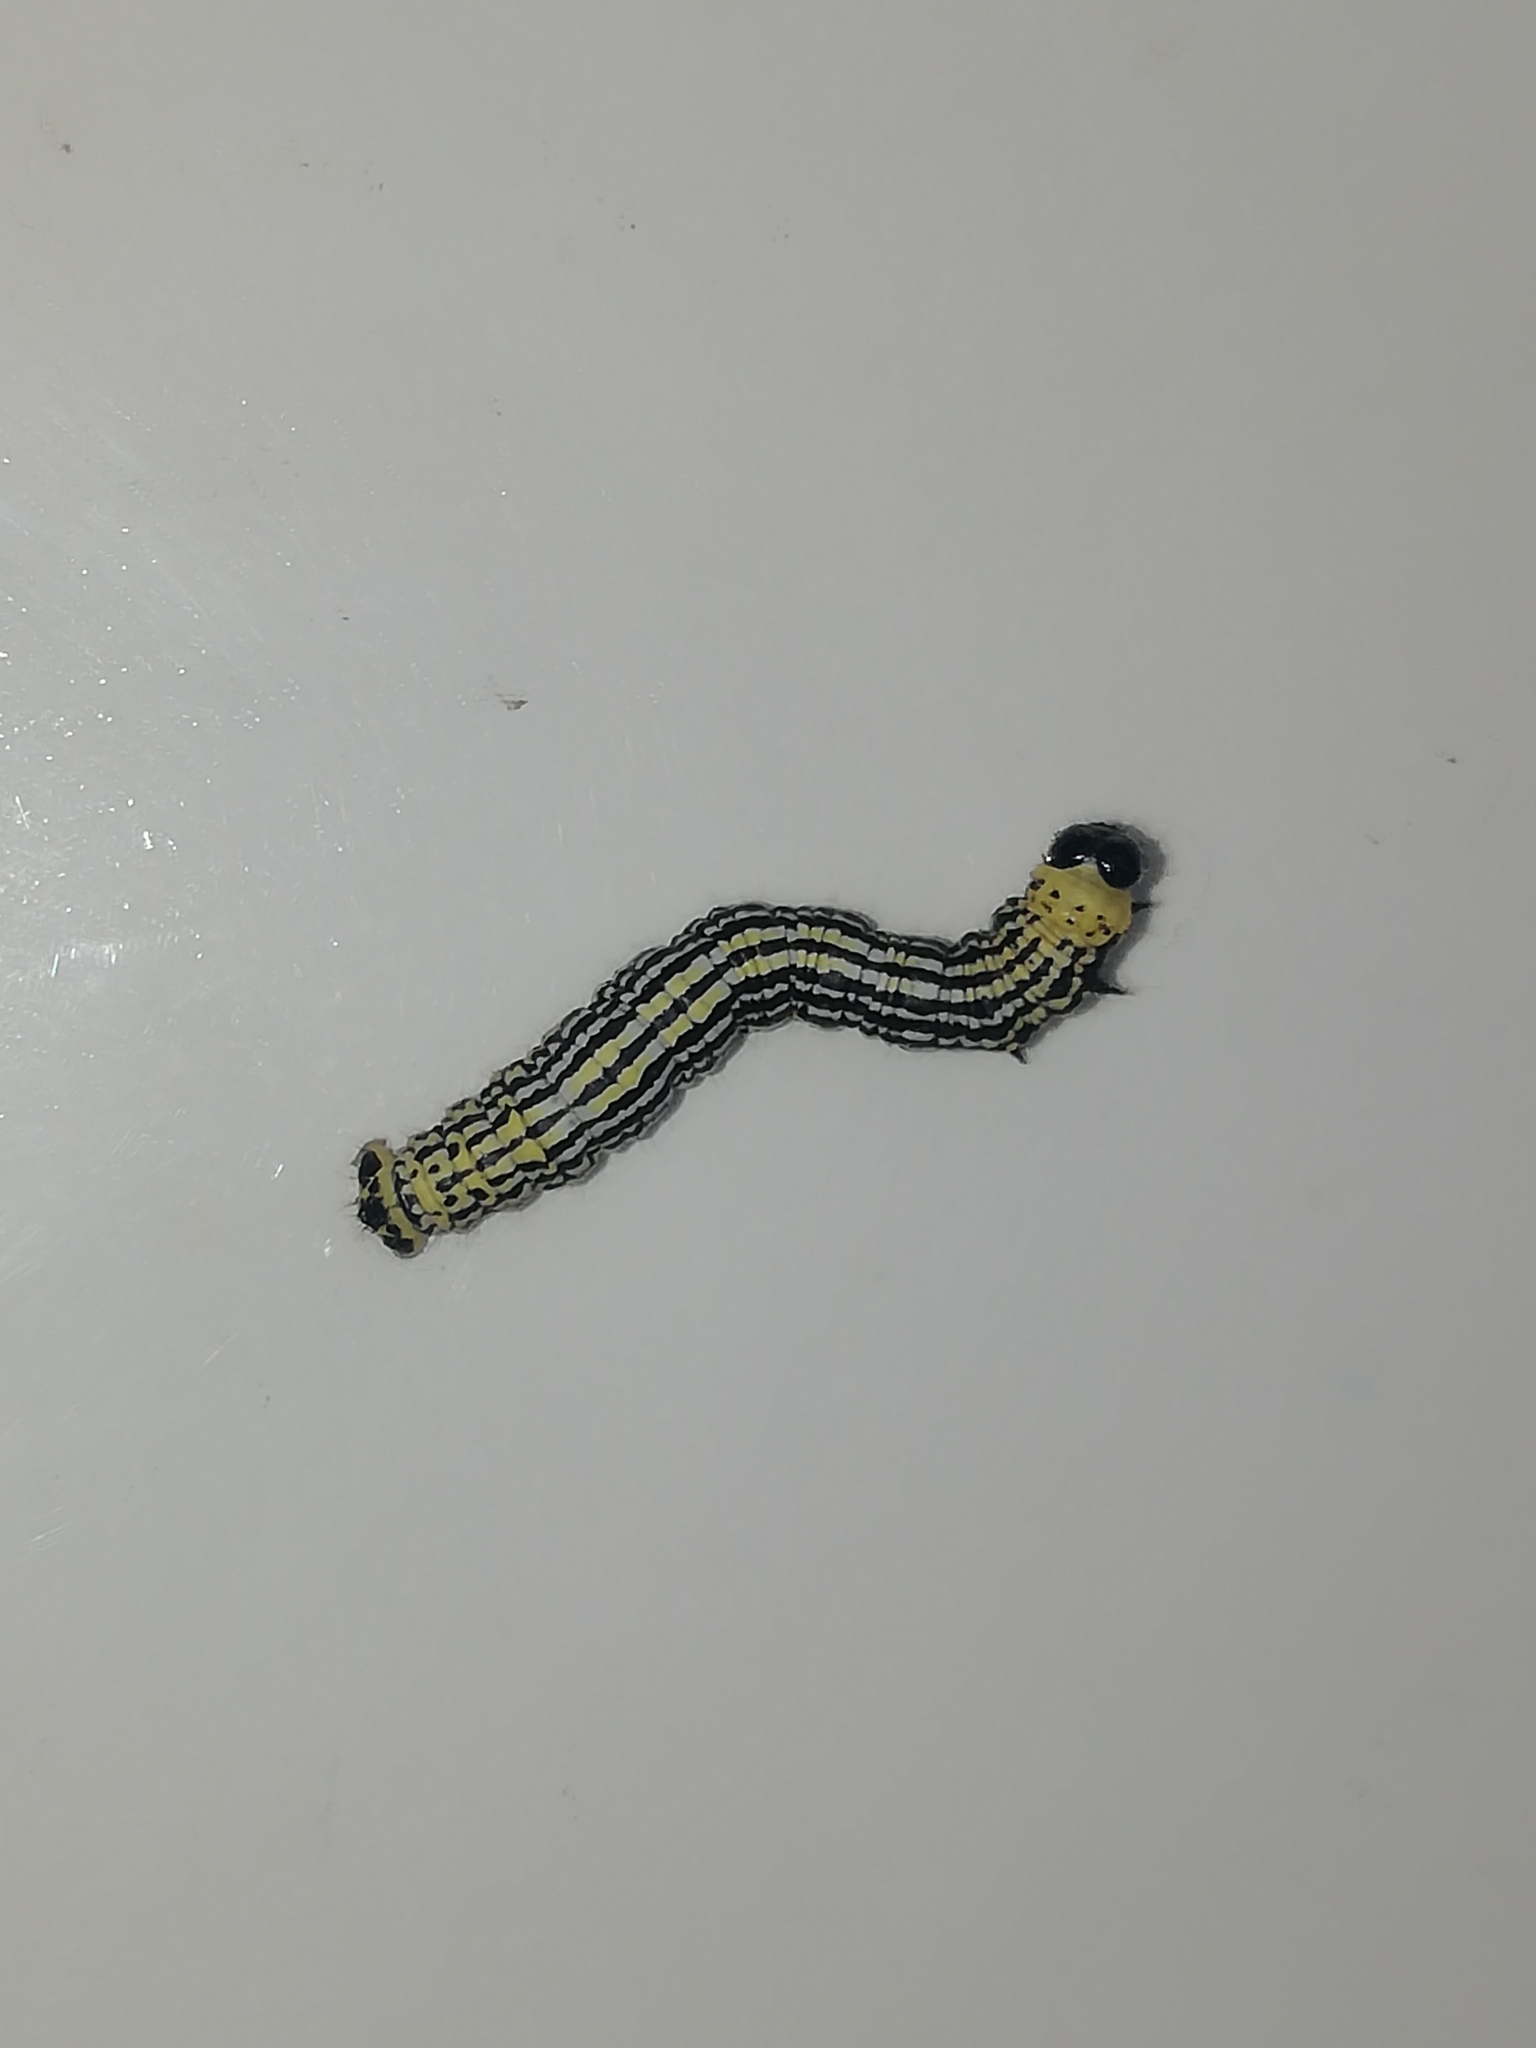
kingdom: Animalia
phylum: Arthropoda
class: Insecta
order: Lepidoptera
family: Geometridae
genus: Abraxas
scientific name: Abraxas sylvata
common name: Clouded magpie
